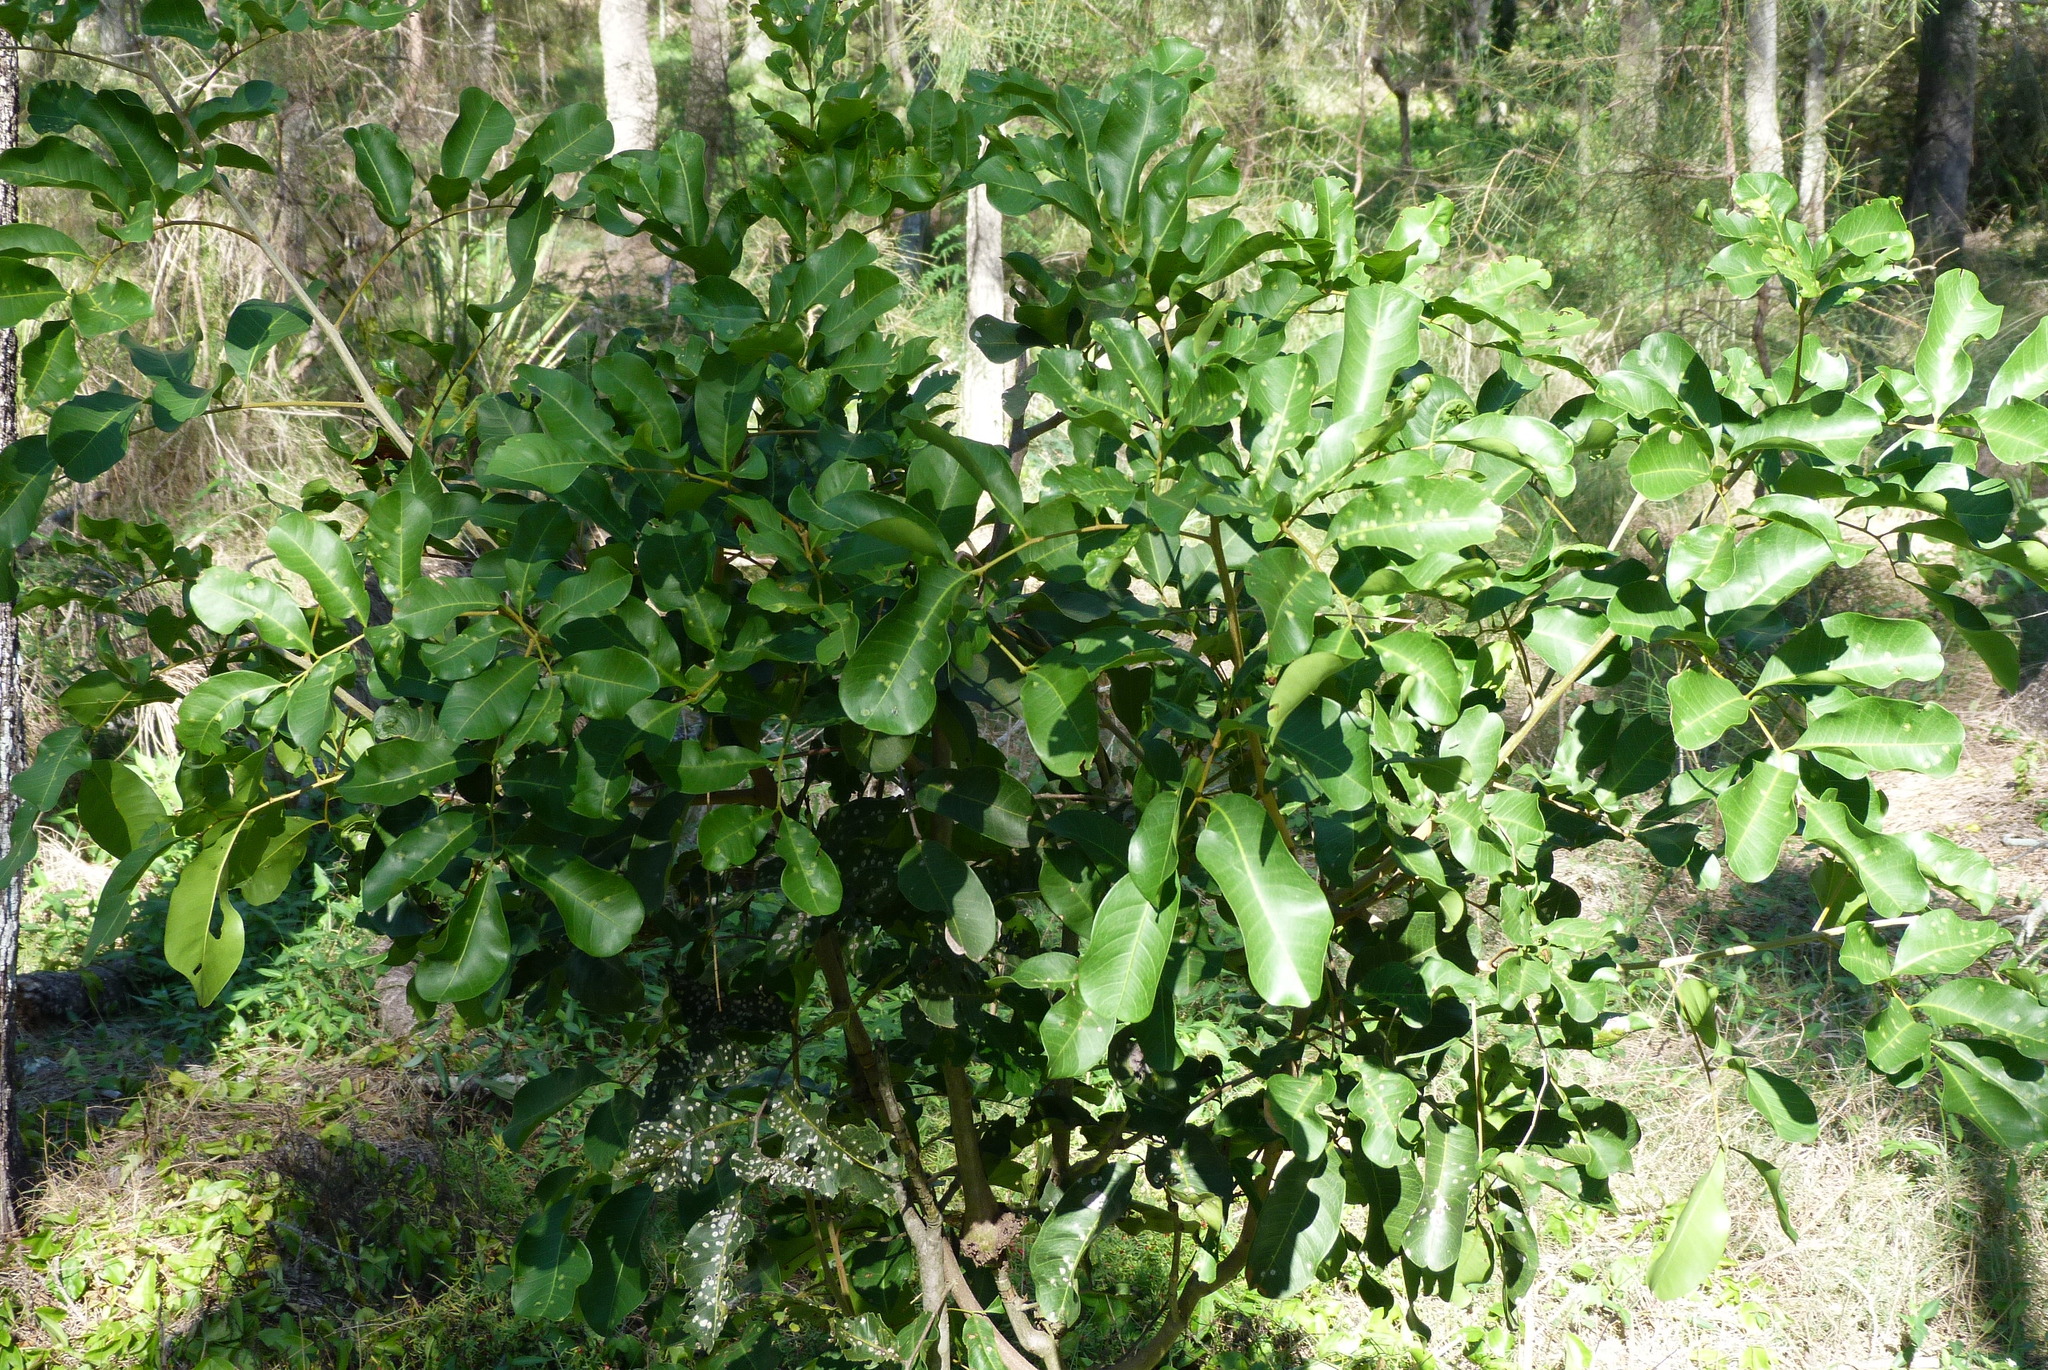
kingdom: Plantae
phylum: Tracheophyta
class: Magnoliopsida
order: Sapindales
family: Sapindaceae
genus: Cupaniopsis
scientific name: Cupaniopsis anacardioides
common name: Carrotwood
